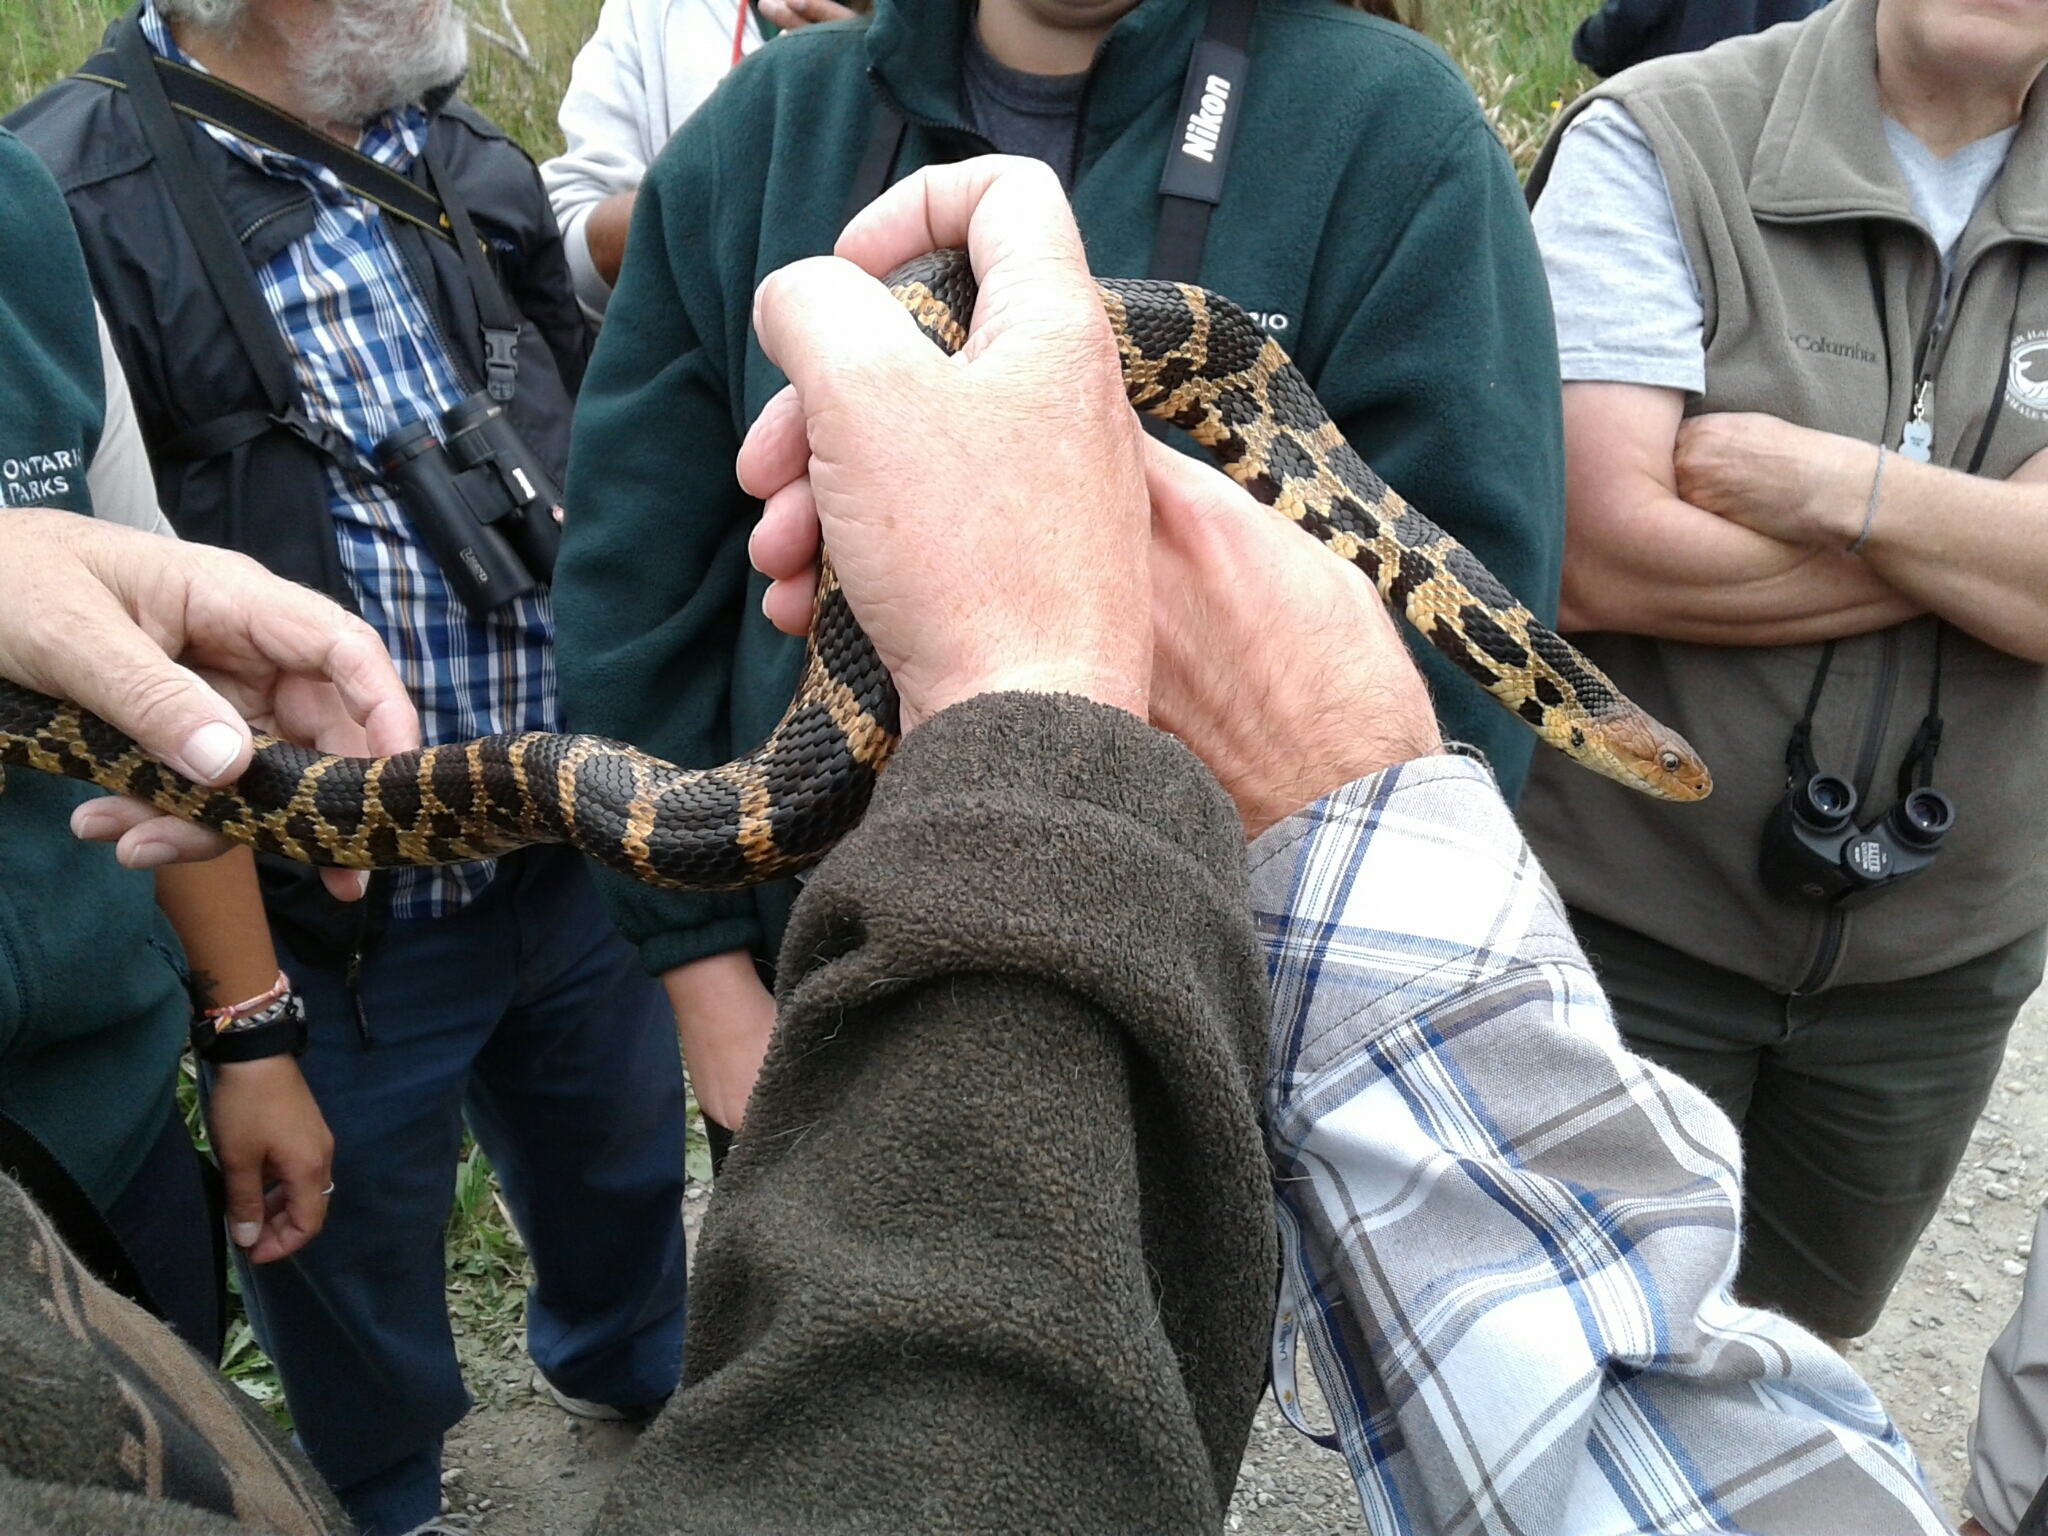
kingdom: Animalia
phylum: Chordata
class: Squamata
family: Colubridae
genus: Pantherophis
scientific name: Pantherophis vulpinus
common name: Eastern fox snake
